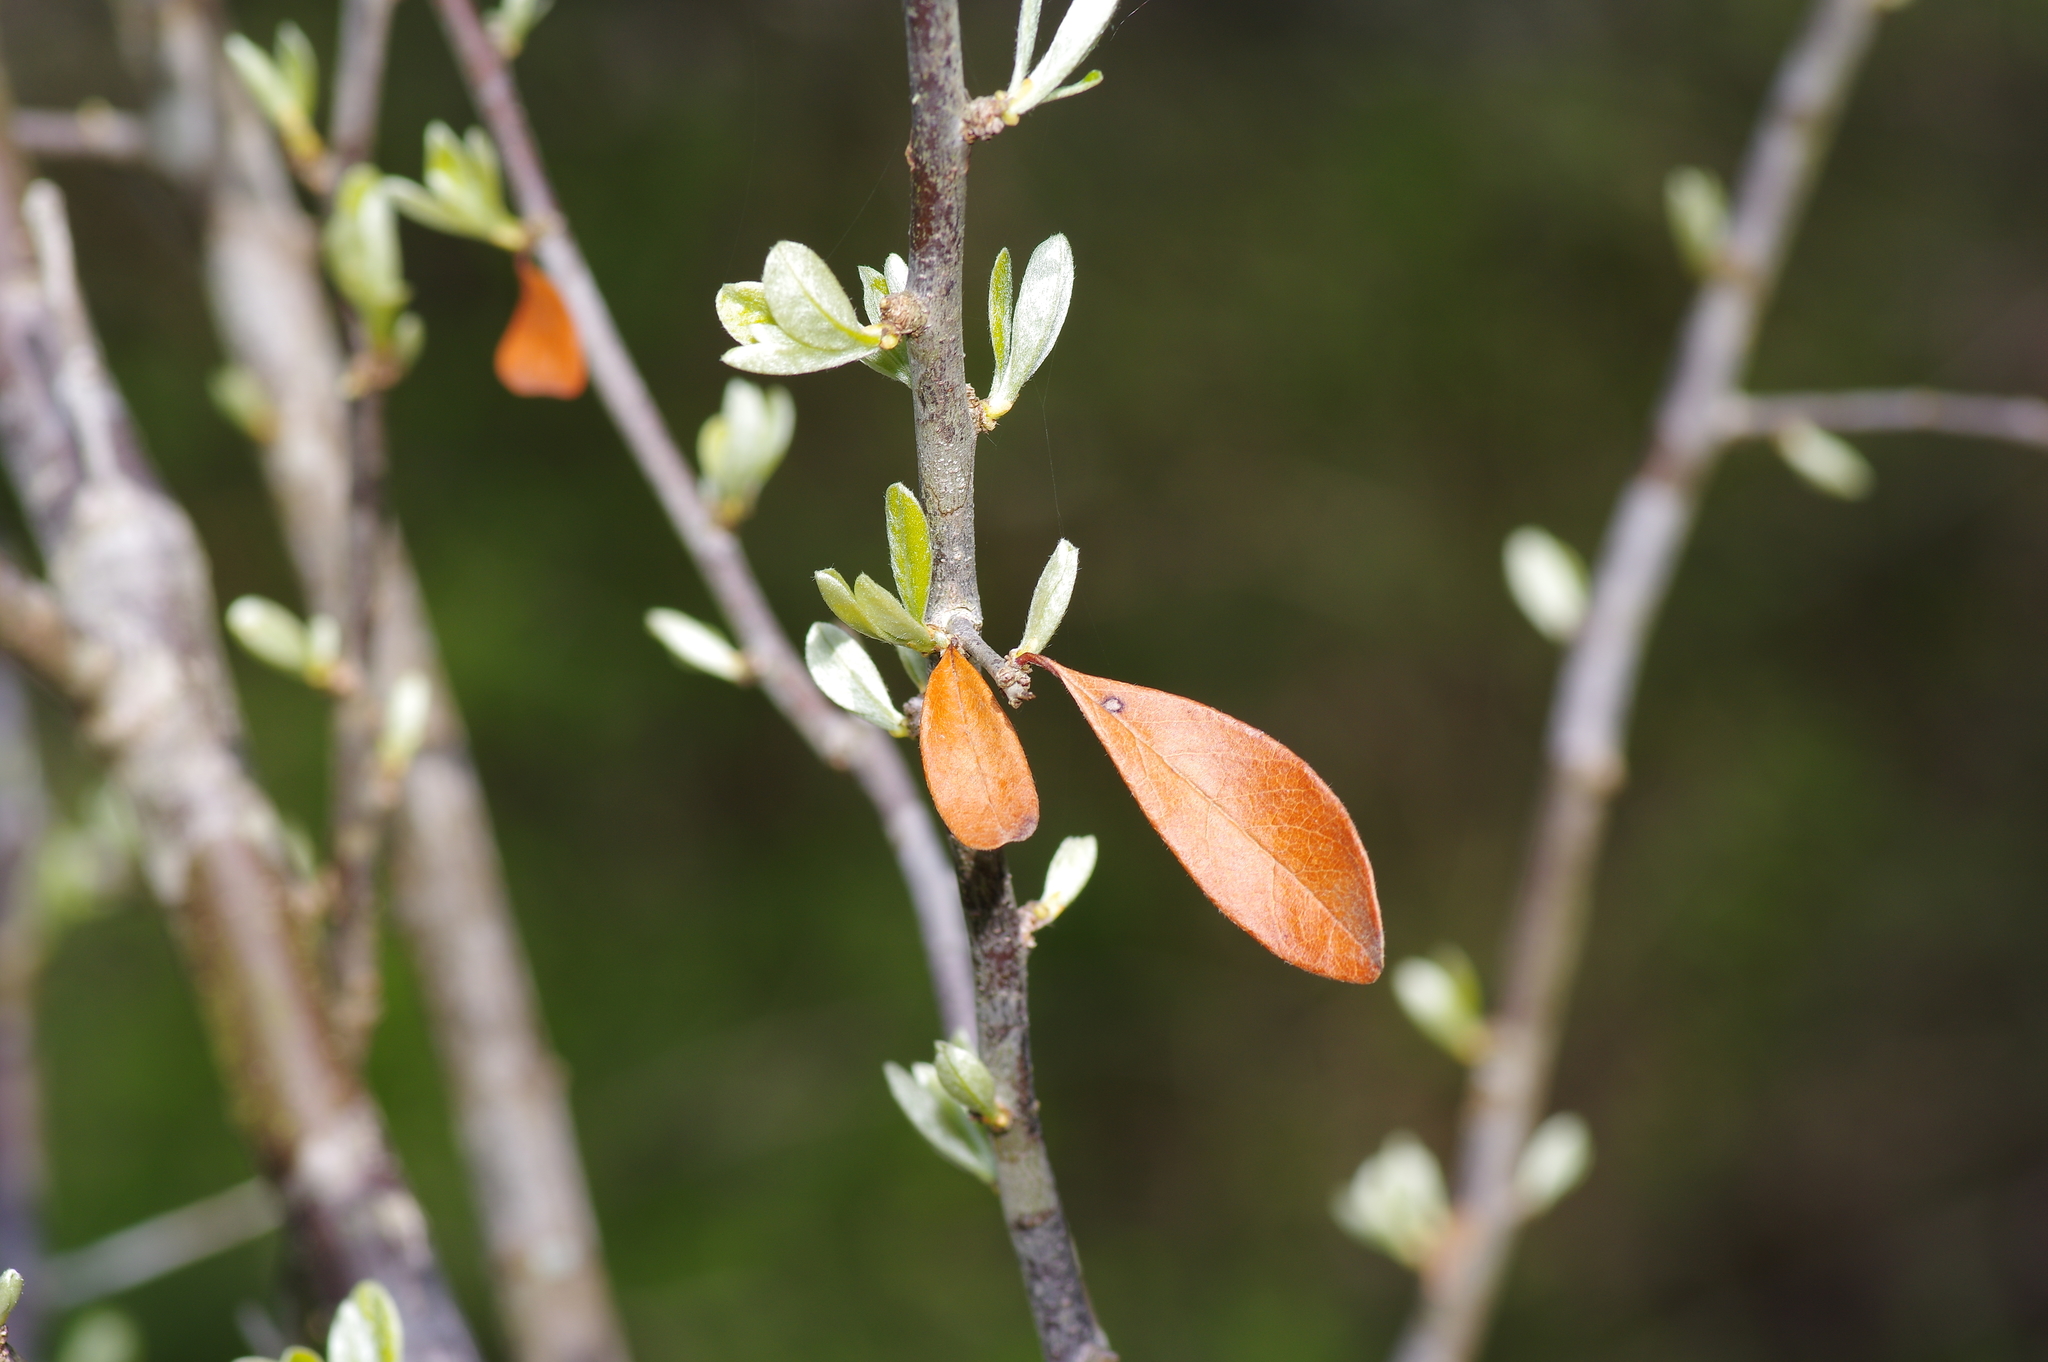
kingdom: Plantae
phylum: Tracheophyta
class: Magnoliopsida
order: Ericales
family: Sapotaceae
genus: Sideroxylon
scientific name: Sideroxylon lanuginosum
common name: Chittamwood
